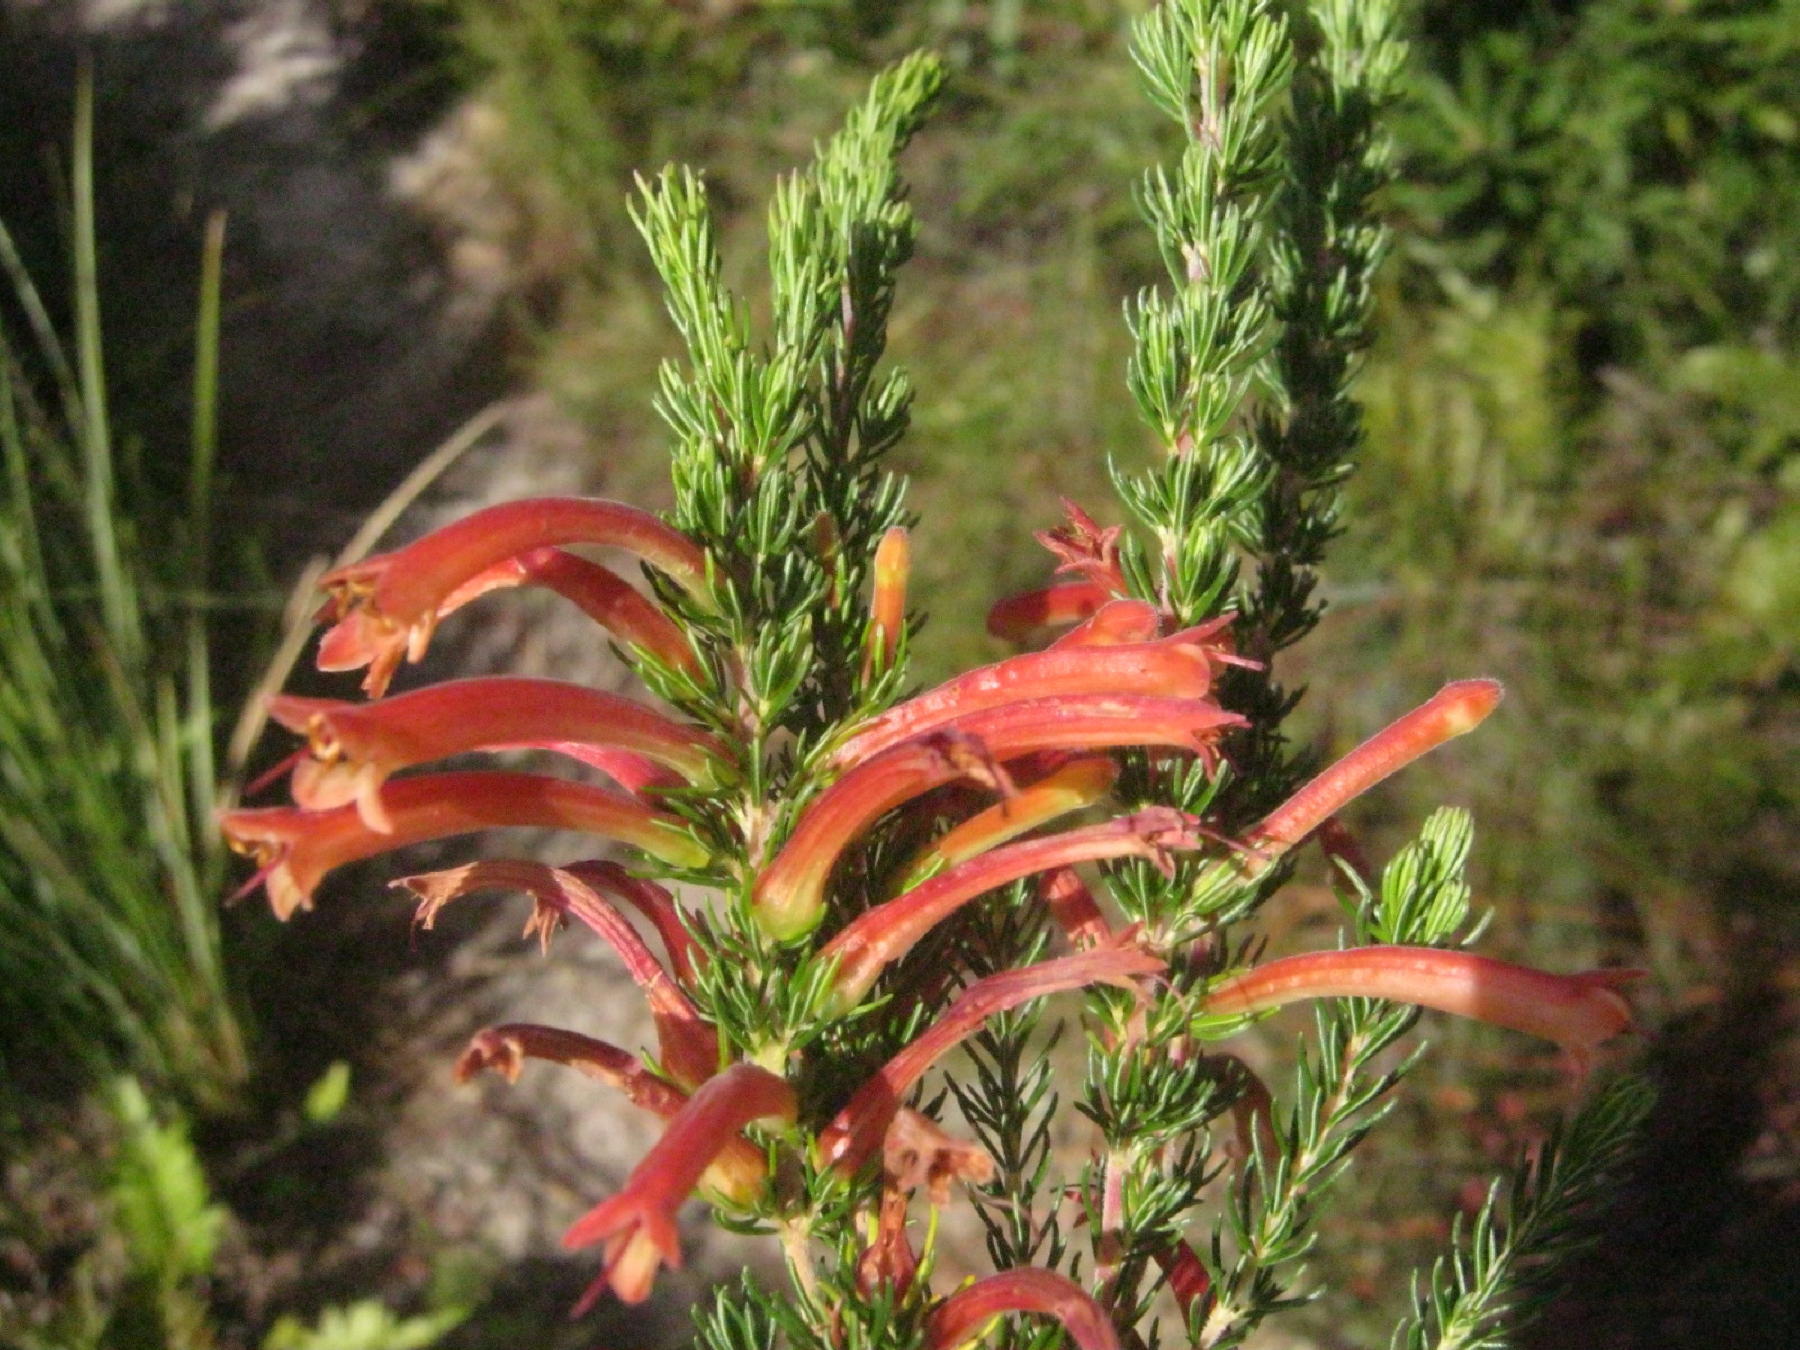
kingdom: Plantae
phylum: Tracheophyta
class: Magnoliopsida
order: Ericales
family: Ericaceae
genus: Erica
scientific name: Erica curviflora
